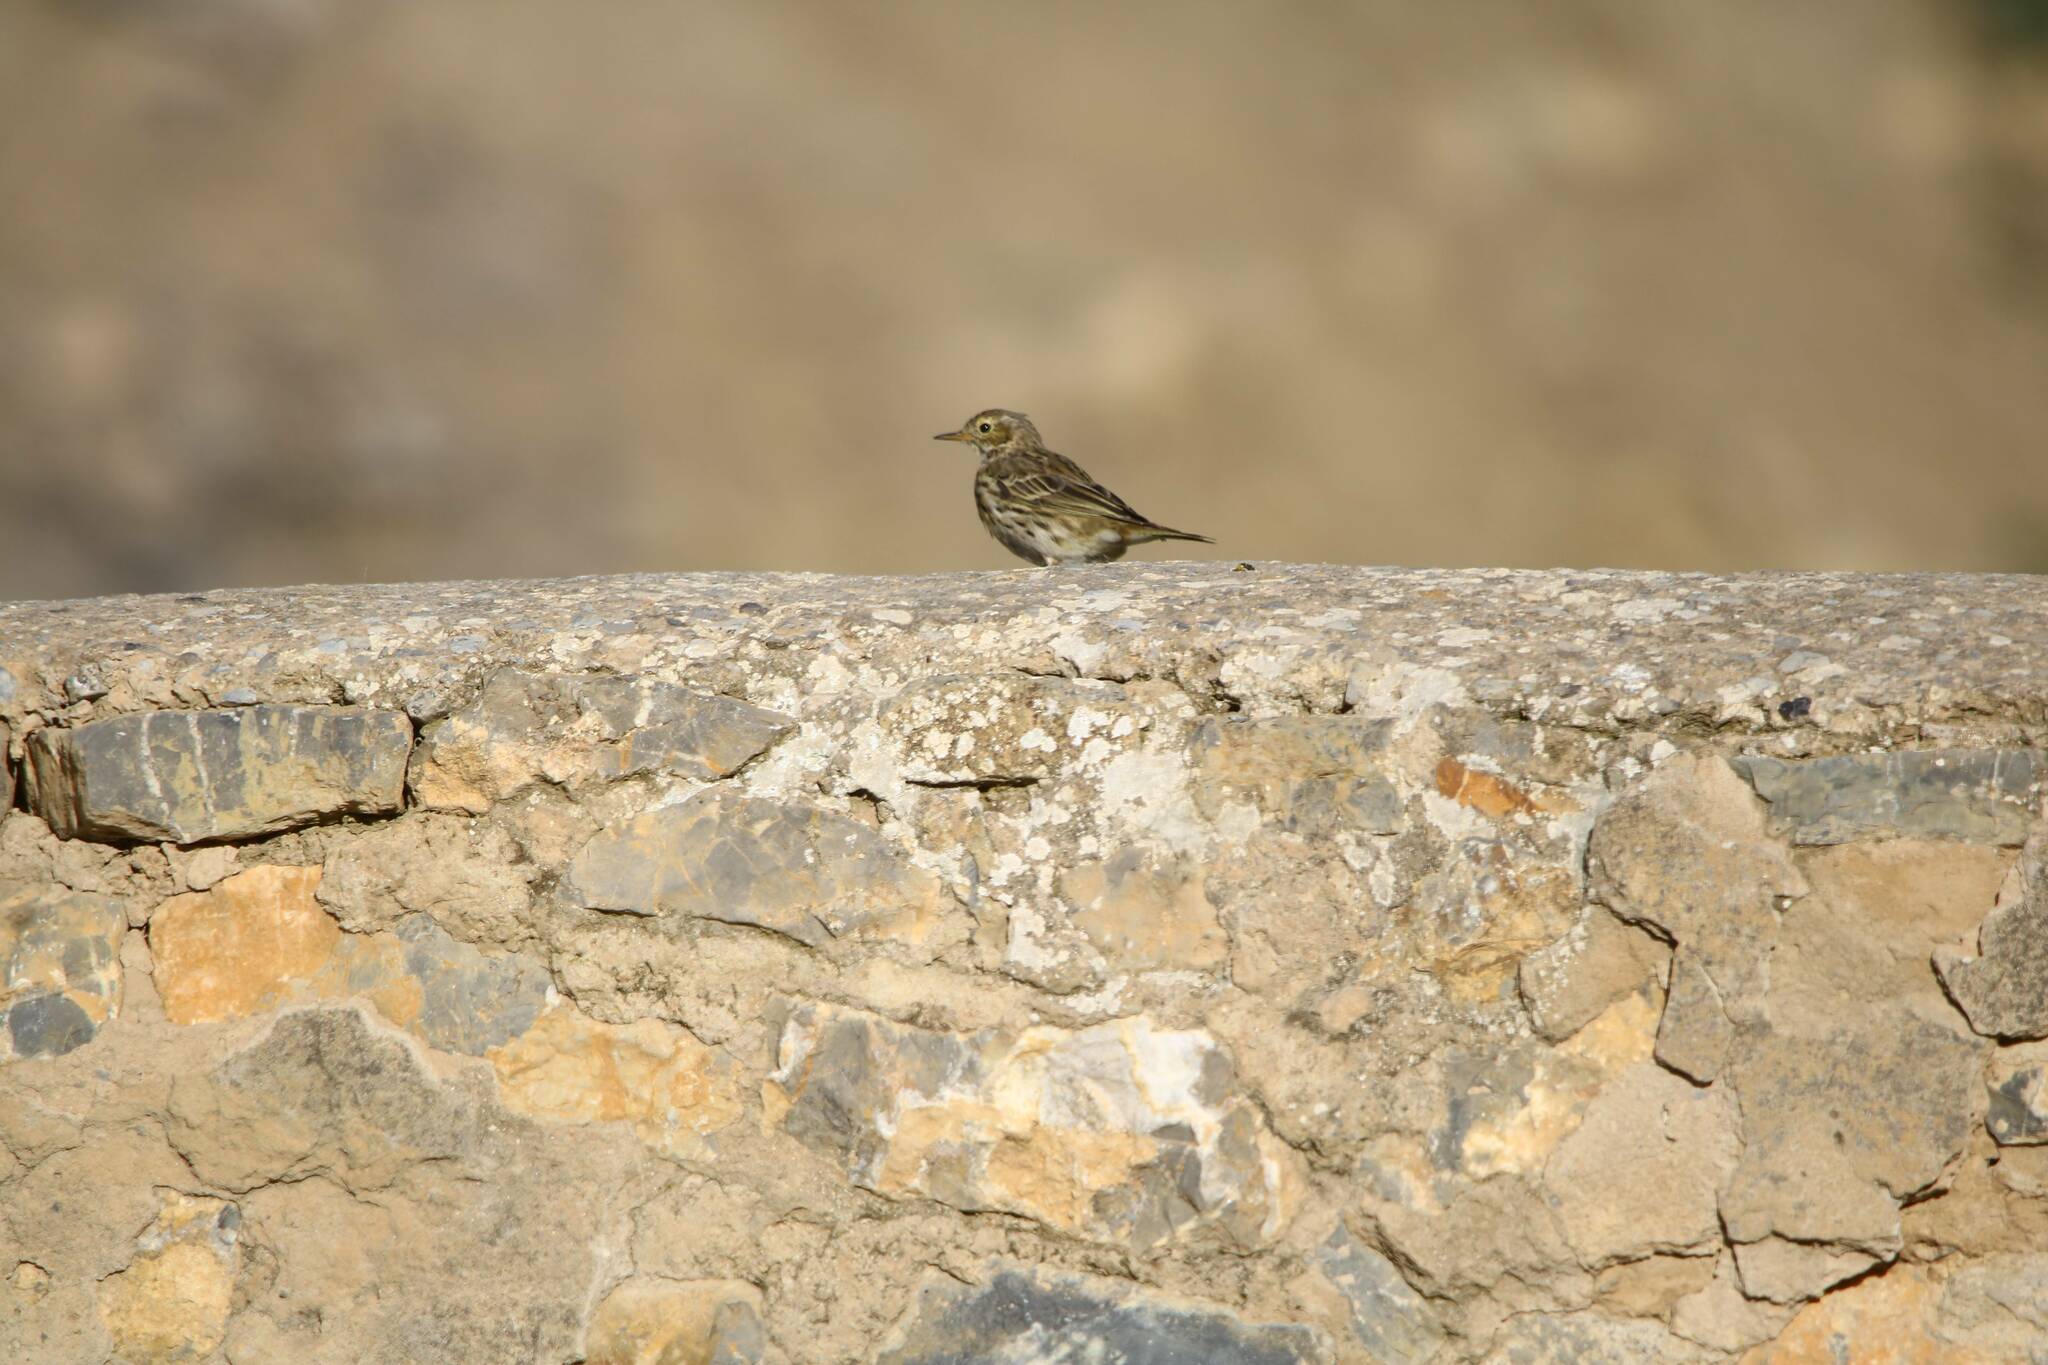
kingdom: Animalia
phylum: Chordata
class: Aves
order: Passeriformes
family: Motacillidae
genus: Anthus
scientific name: Anthus pratensis
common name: Meadow pipit
